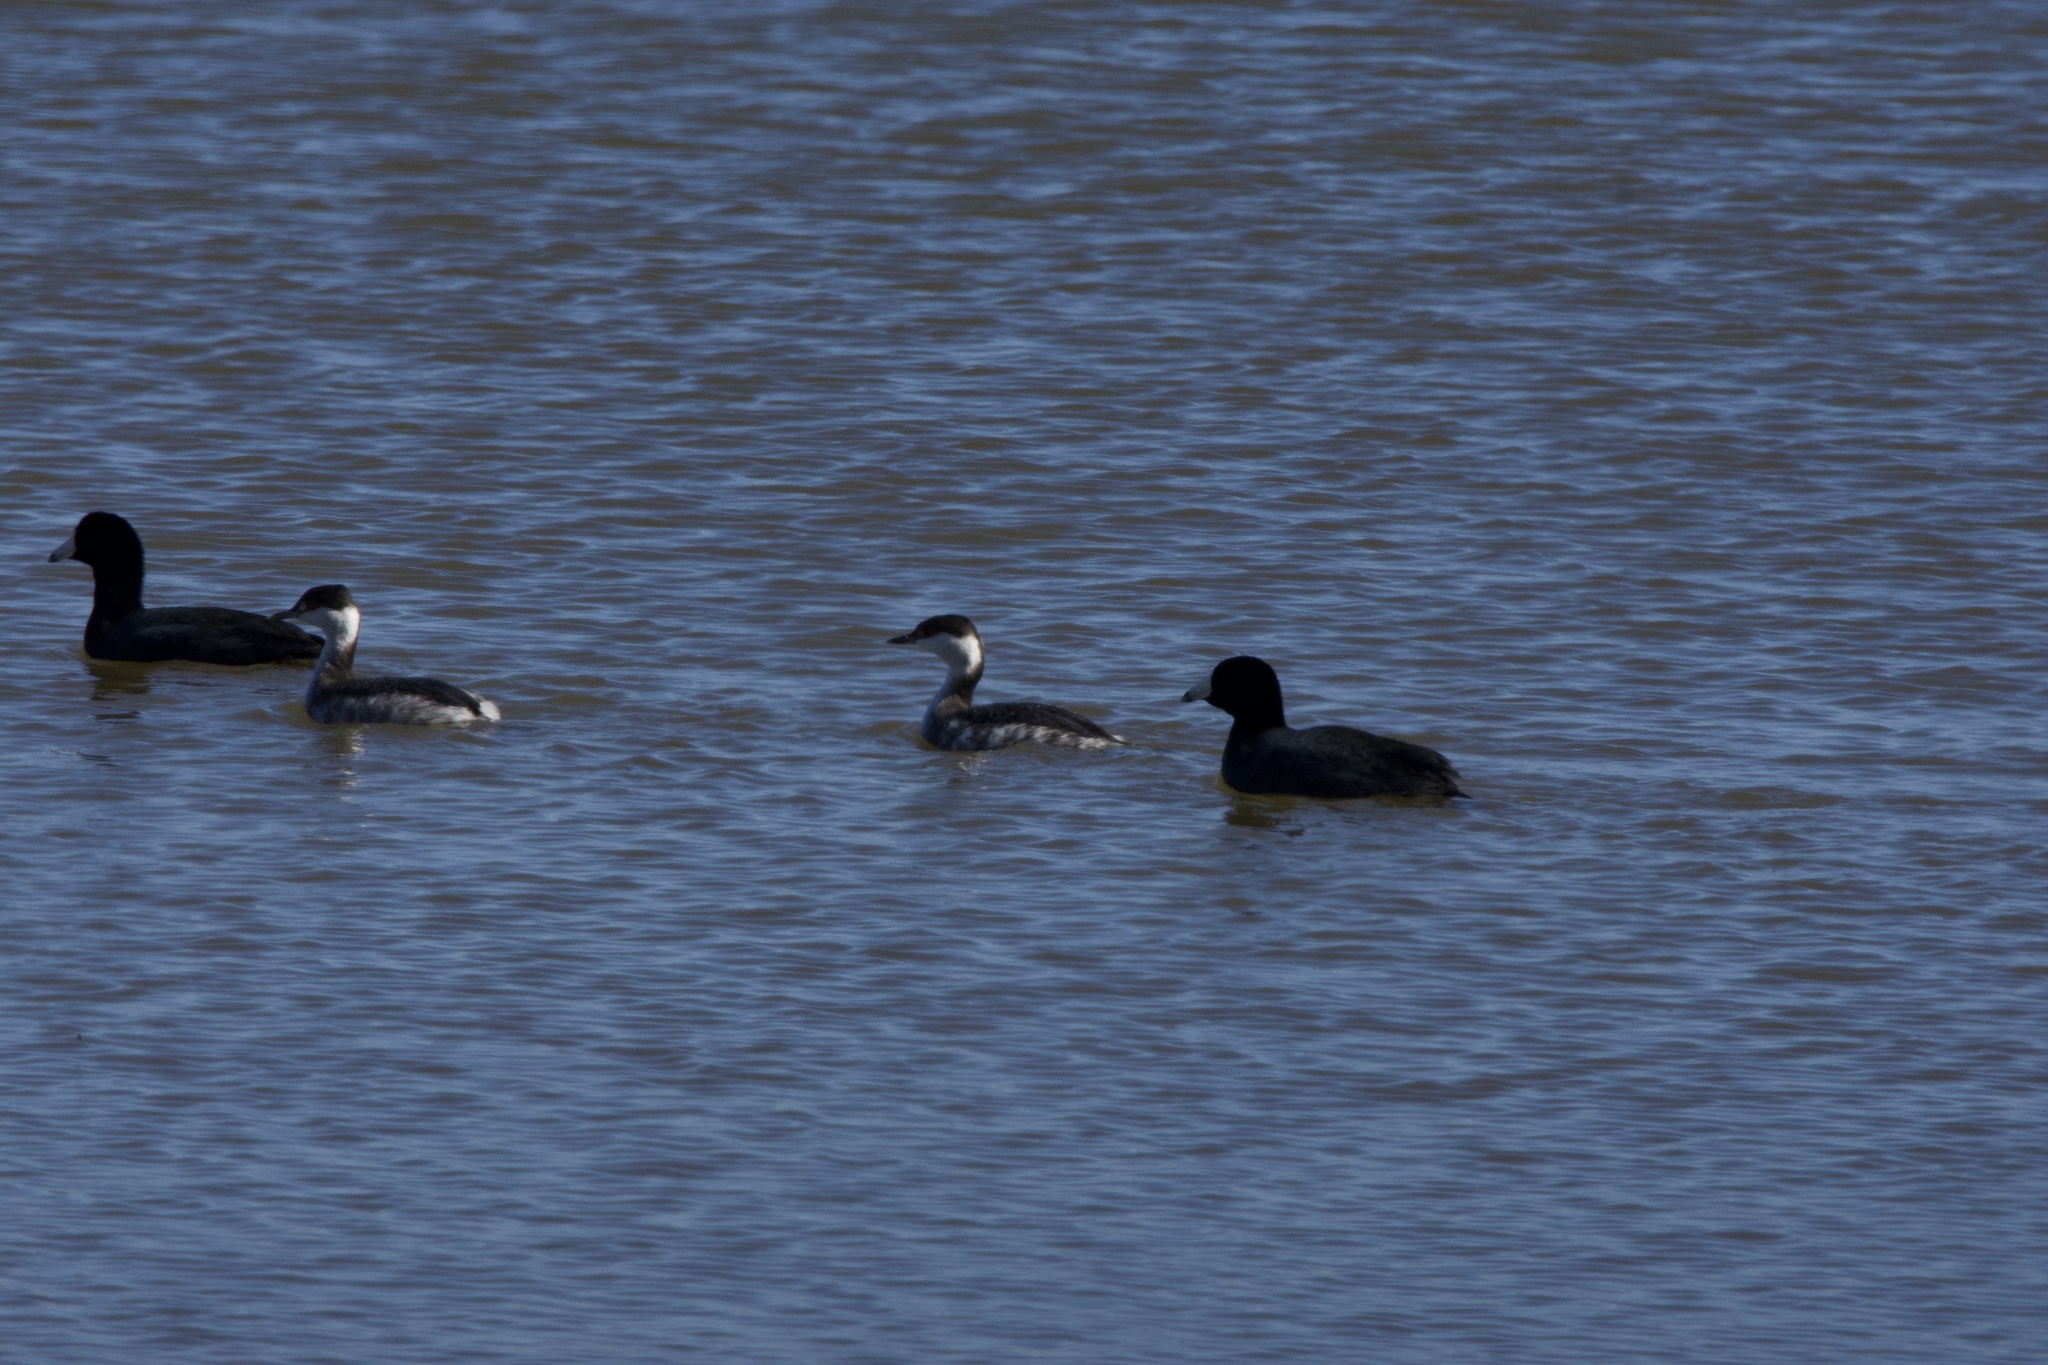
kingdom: Animalia
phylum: Chordata
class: Aves
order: Podicipediformes
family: Podicipedidae
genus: Podiceps
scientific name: Podiceps auritus
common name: Horned grebe
